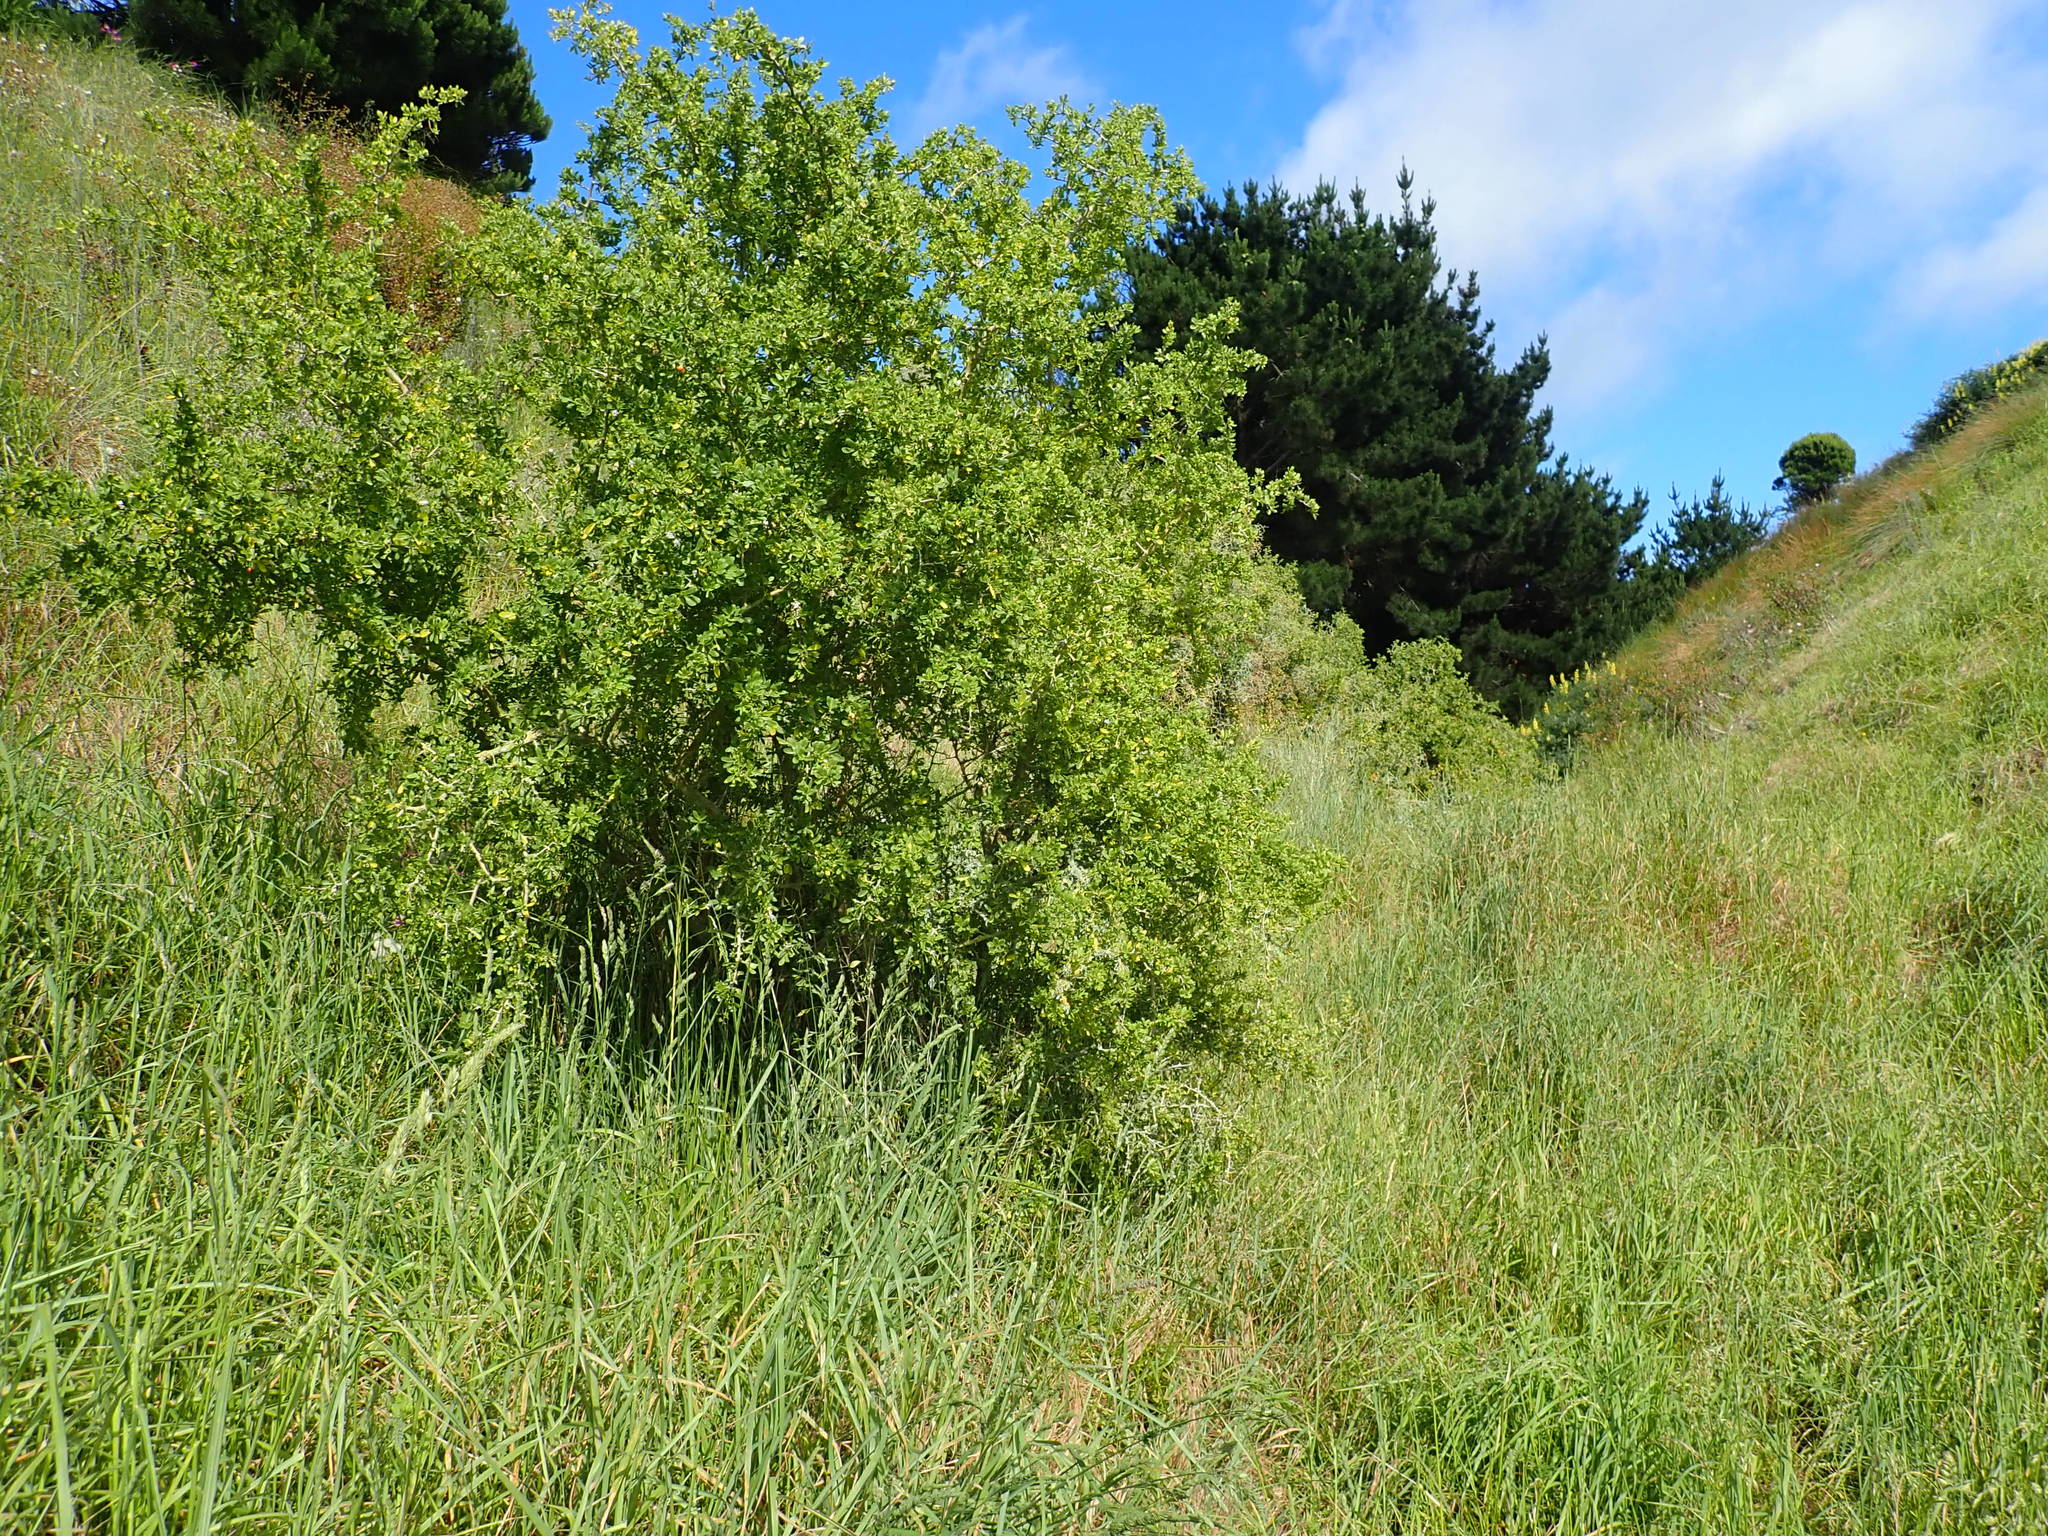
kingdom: Plantae
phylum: Tracheophyta
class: Magnoliopsida
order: Solanales
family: Solanaceae
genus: Lycium
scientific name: Lycium ferocissimum
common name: African boxthorn
